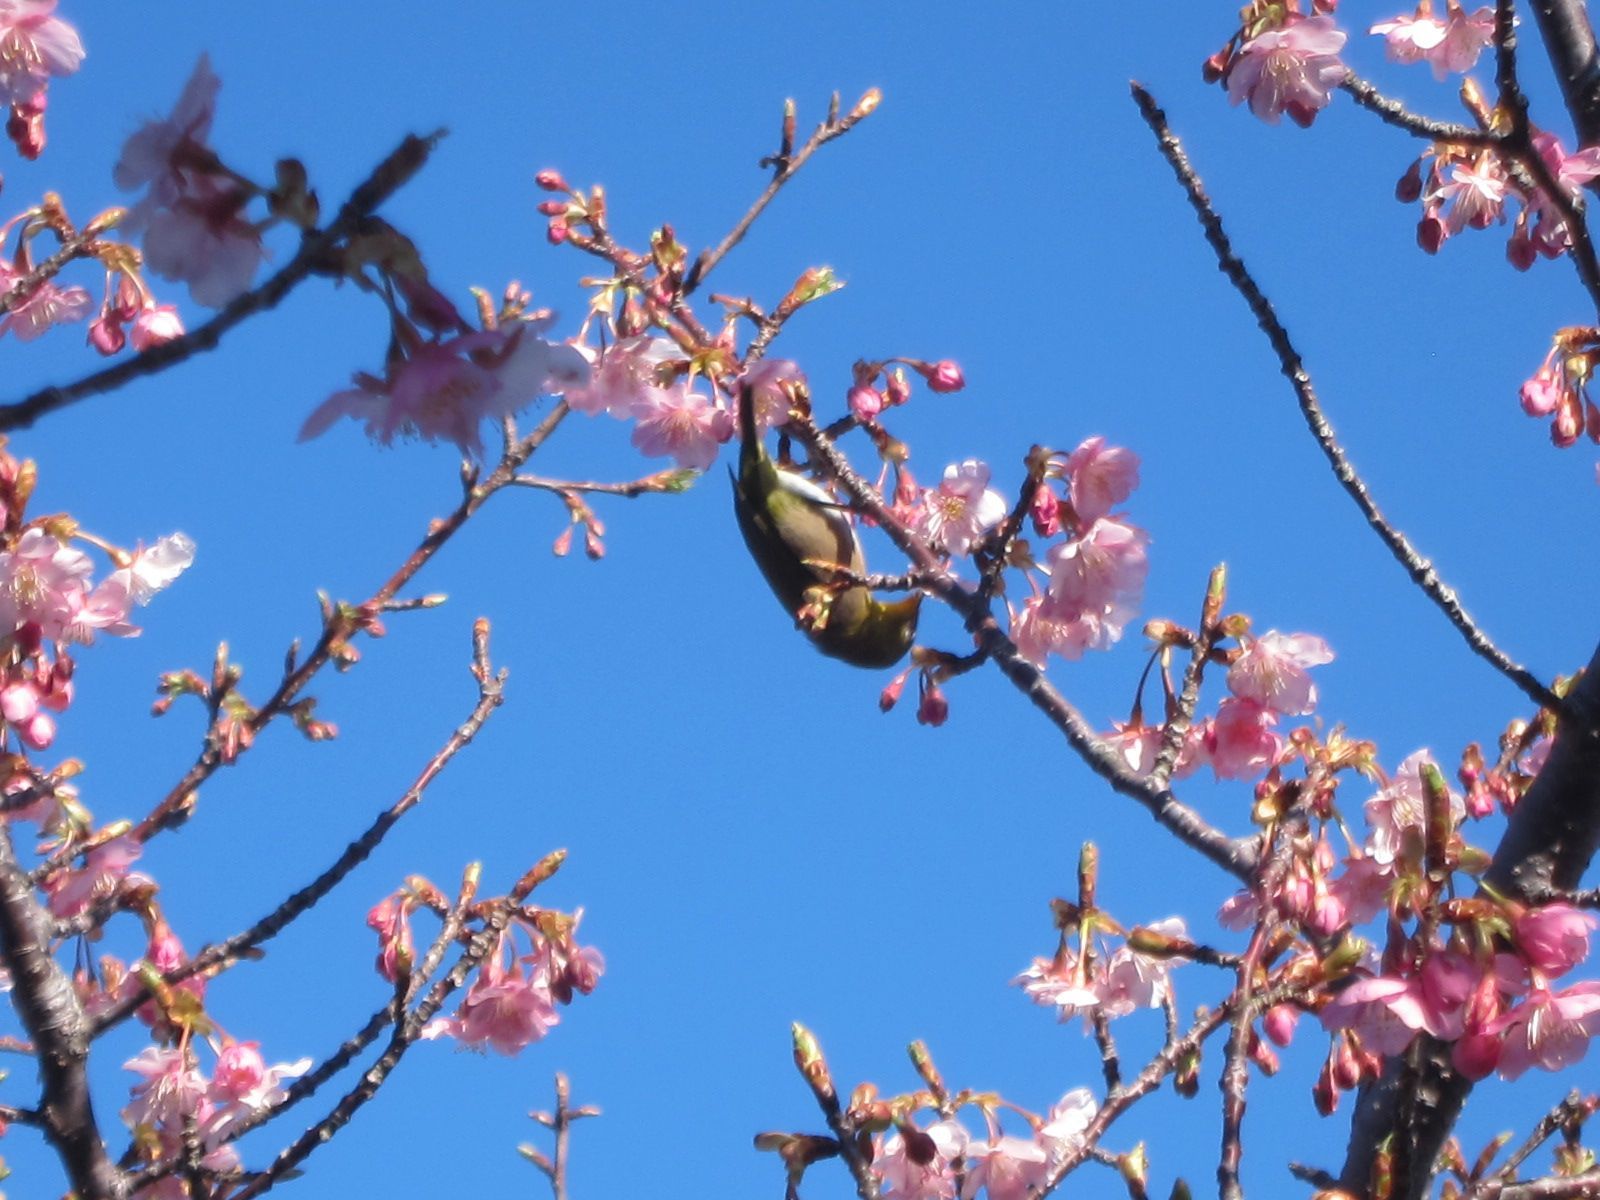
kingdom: Animalia
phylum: Chordata
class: Aves
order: Passeriformes
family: Zosteropidae
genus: Zosterops
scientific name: Zosterops japonicus
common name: Japanese white-eye
